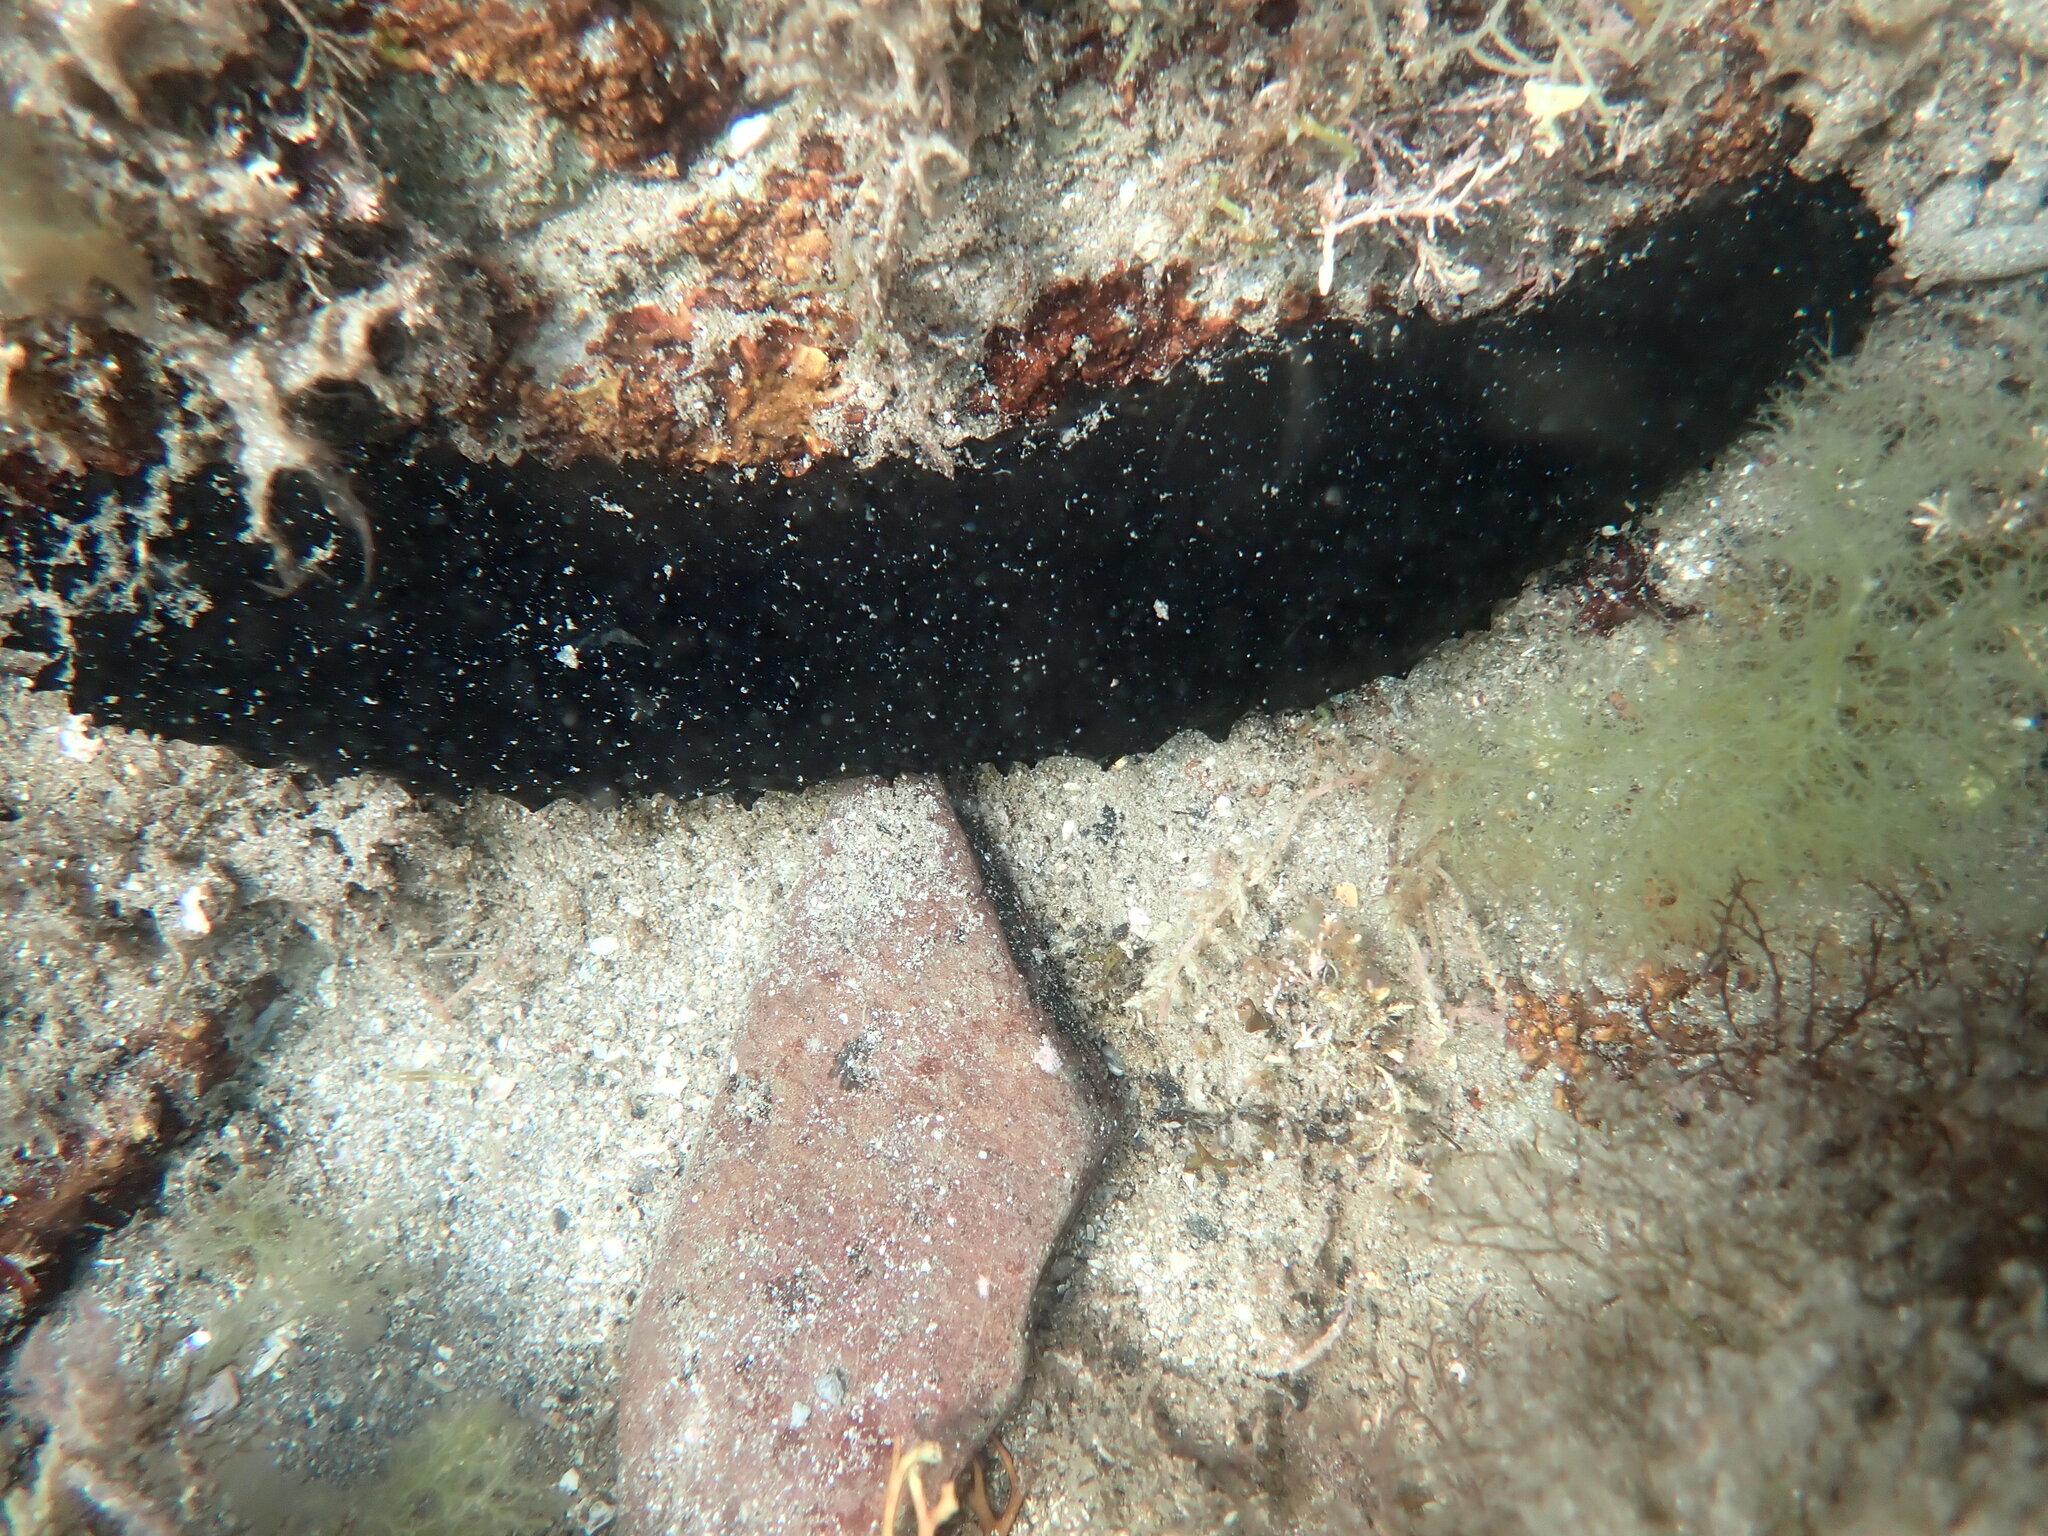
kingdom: Animalia
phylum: Echinodermata
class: Holothuroidea
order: Holothuriida
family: Holothuriidae
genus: Holothuria
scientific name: Holothuria forskali
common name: Black sea cucumber
